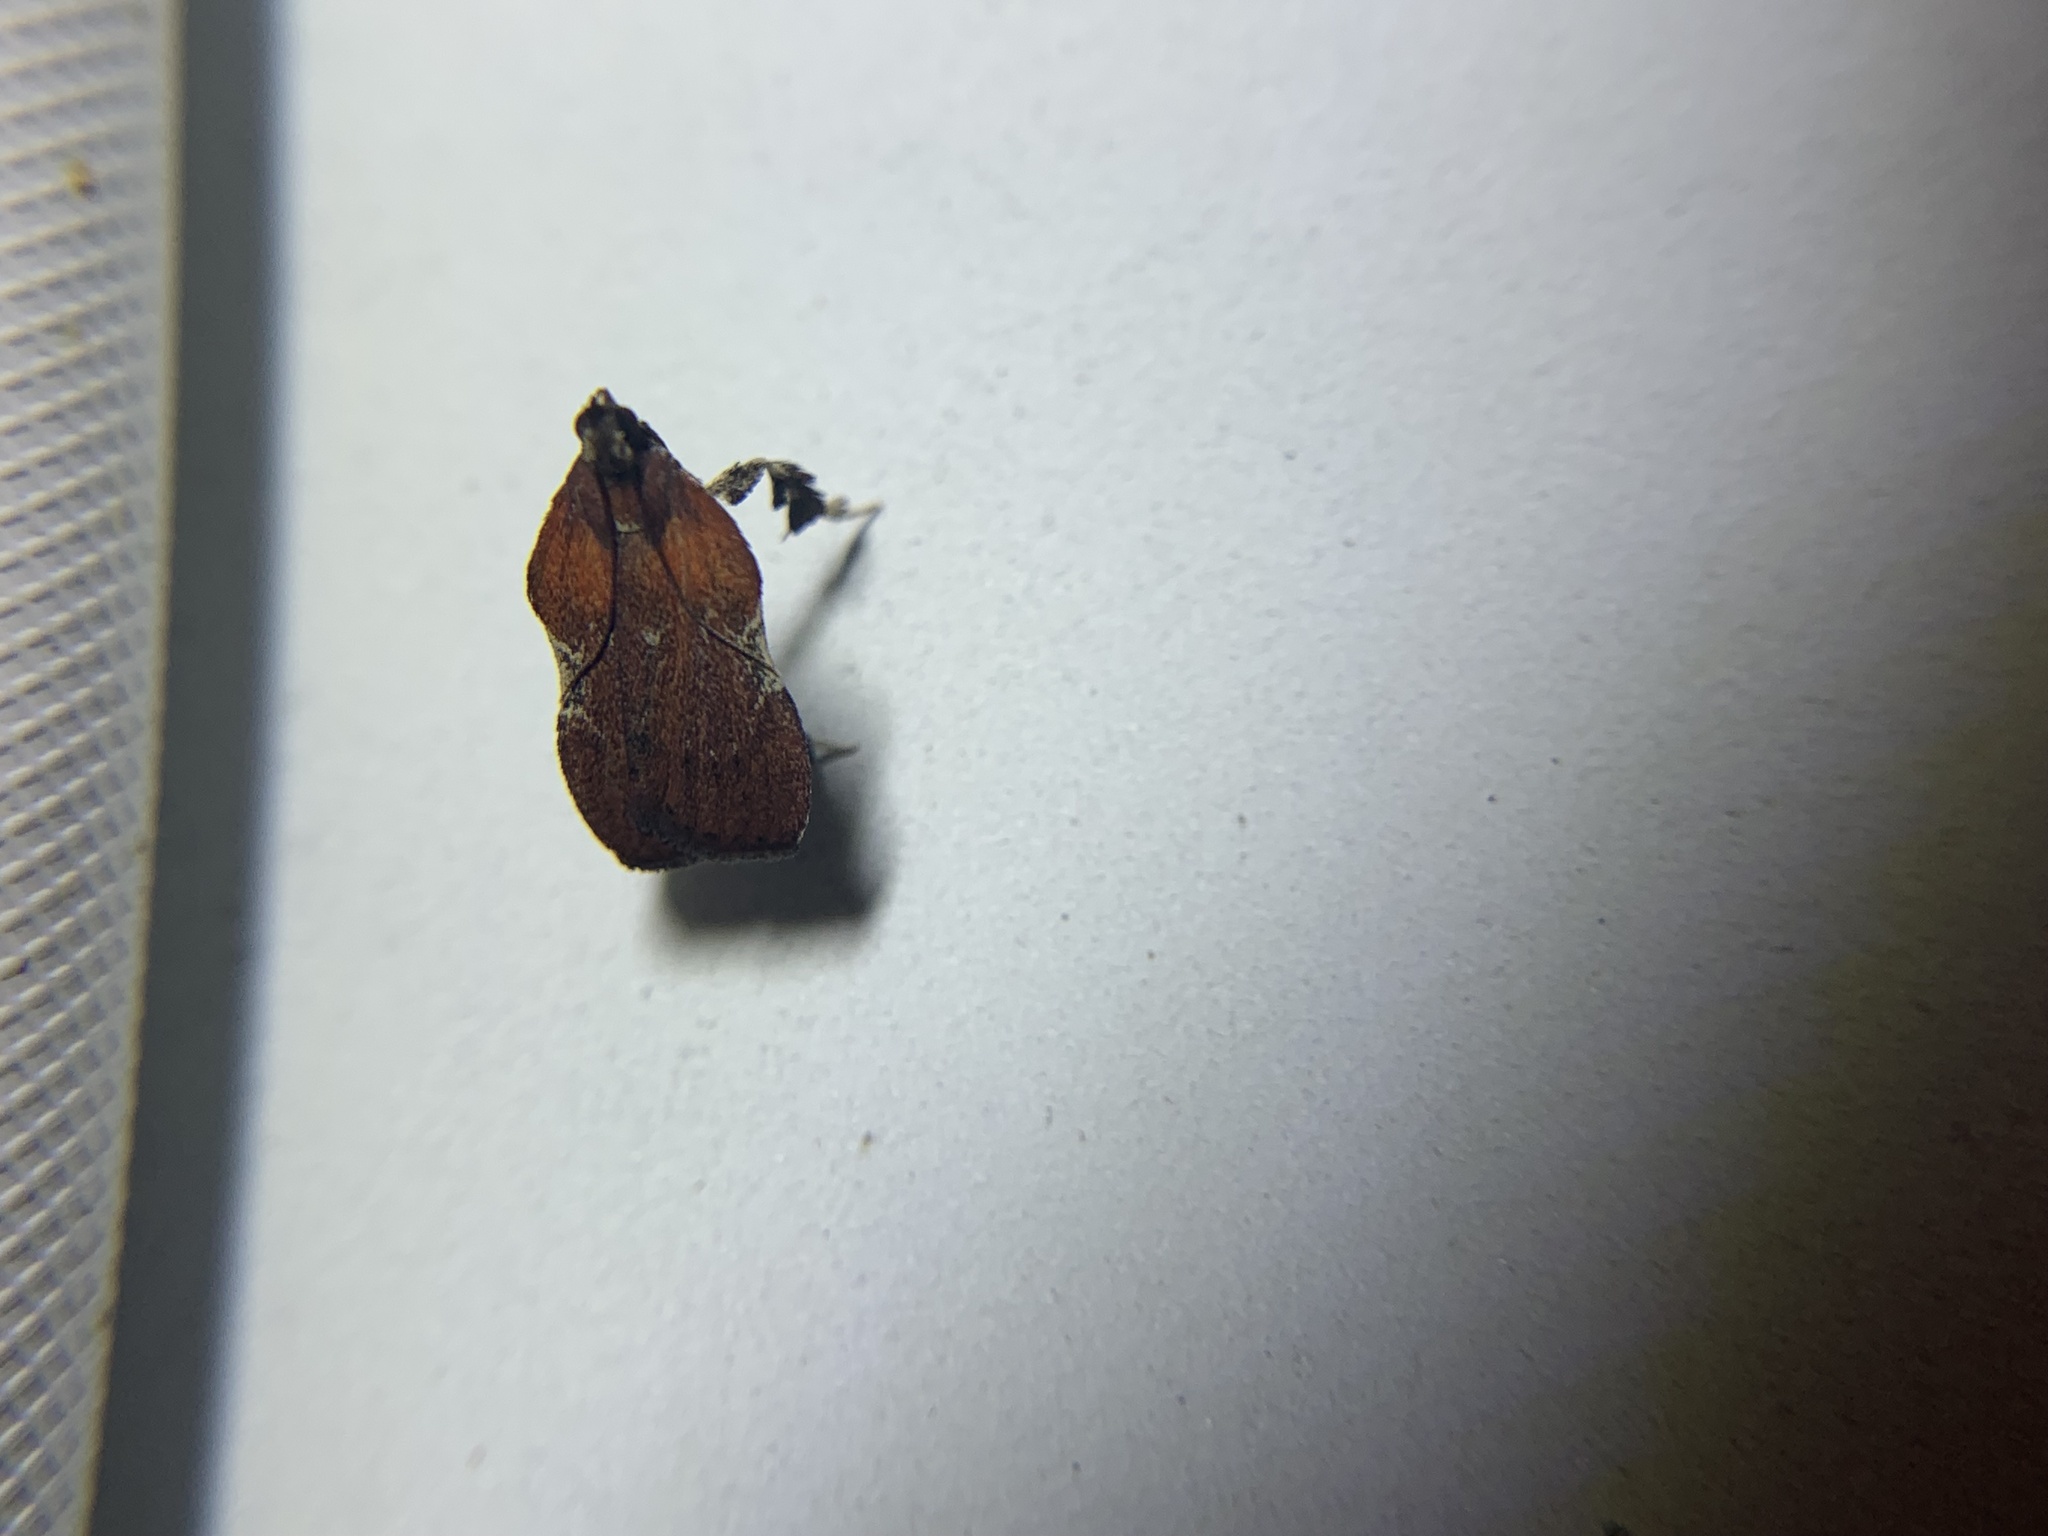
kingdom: Animalia
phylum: Arthropoda
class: Insecta
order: Lepidoptera
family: Pyralidae
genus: Galasa
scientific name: Galasa nigrinodis
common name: Boxwood leaftier moth
